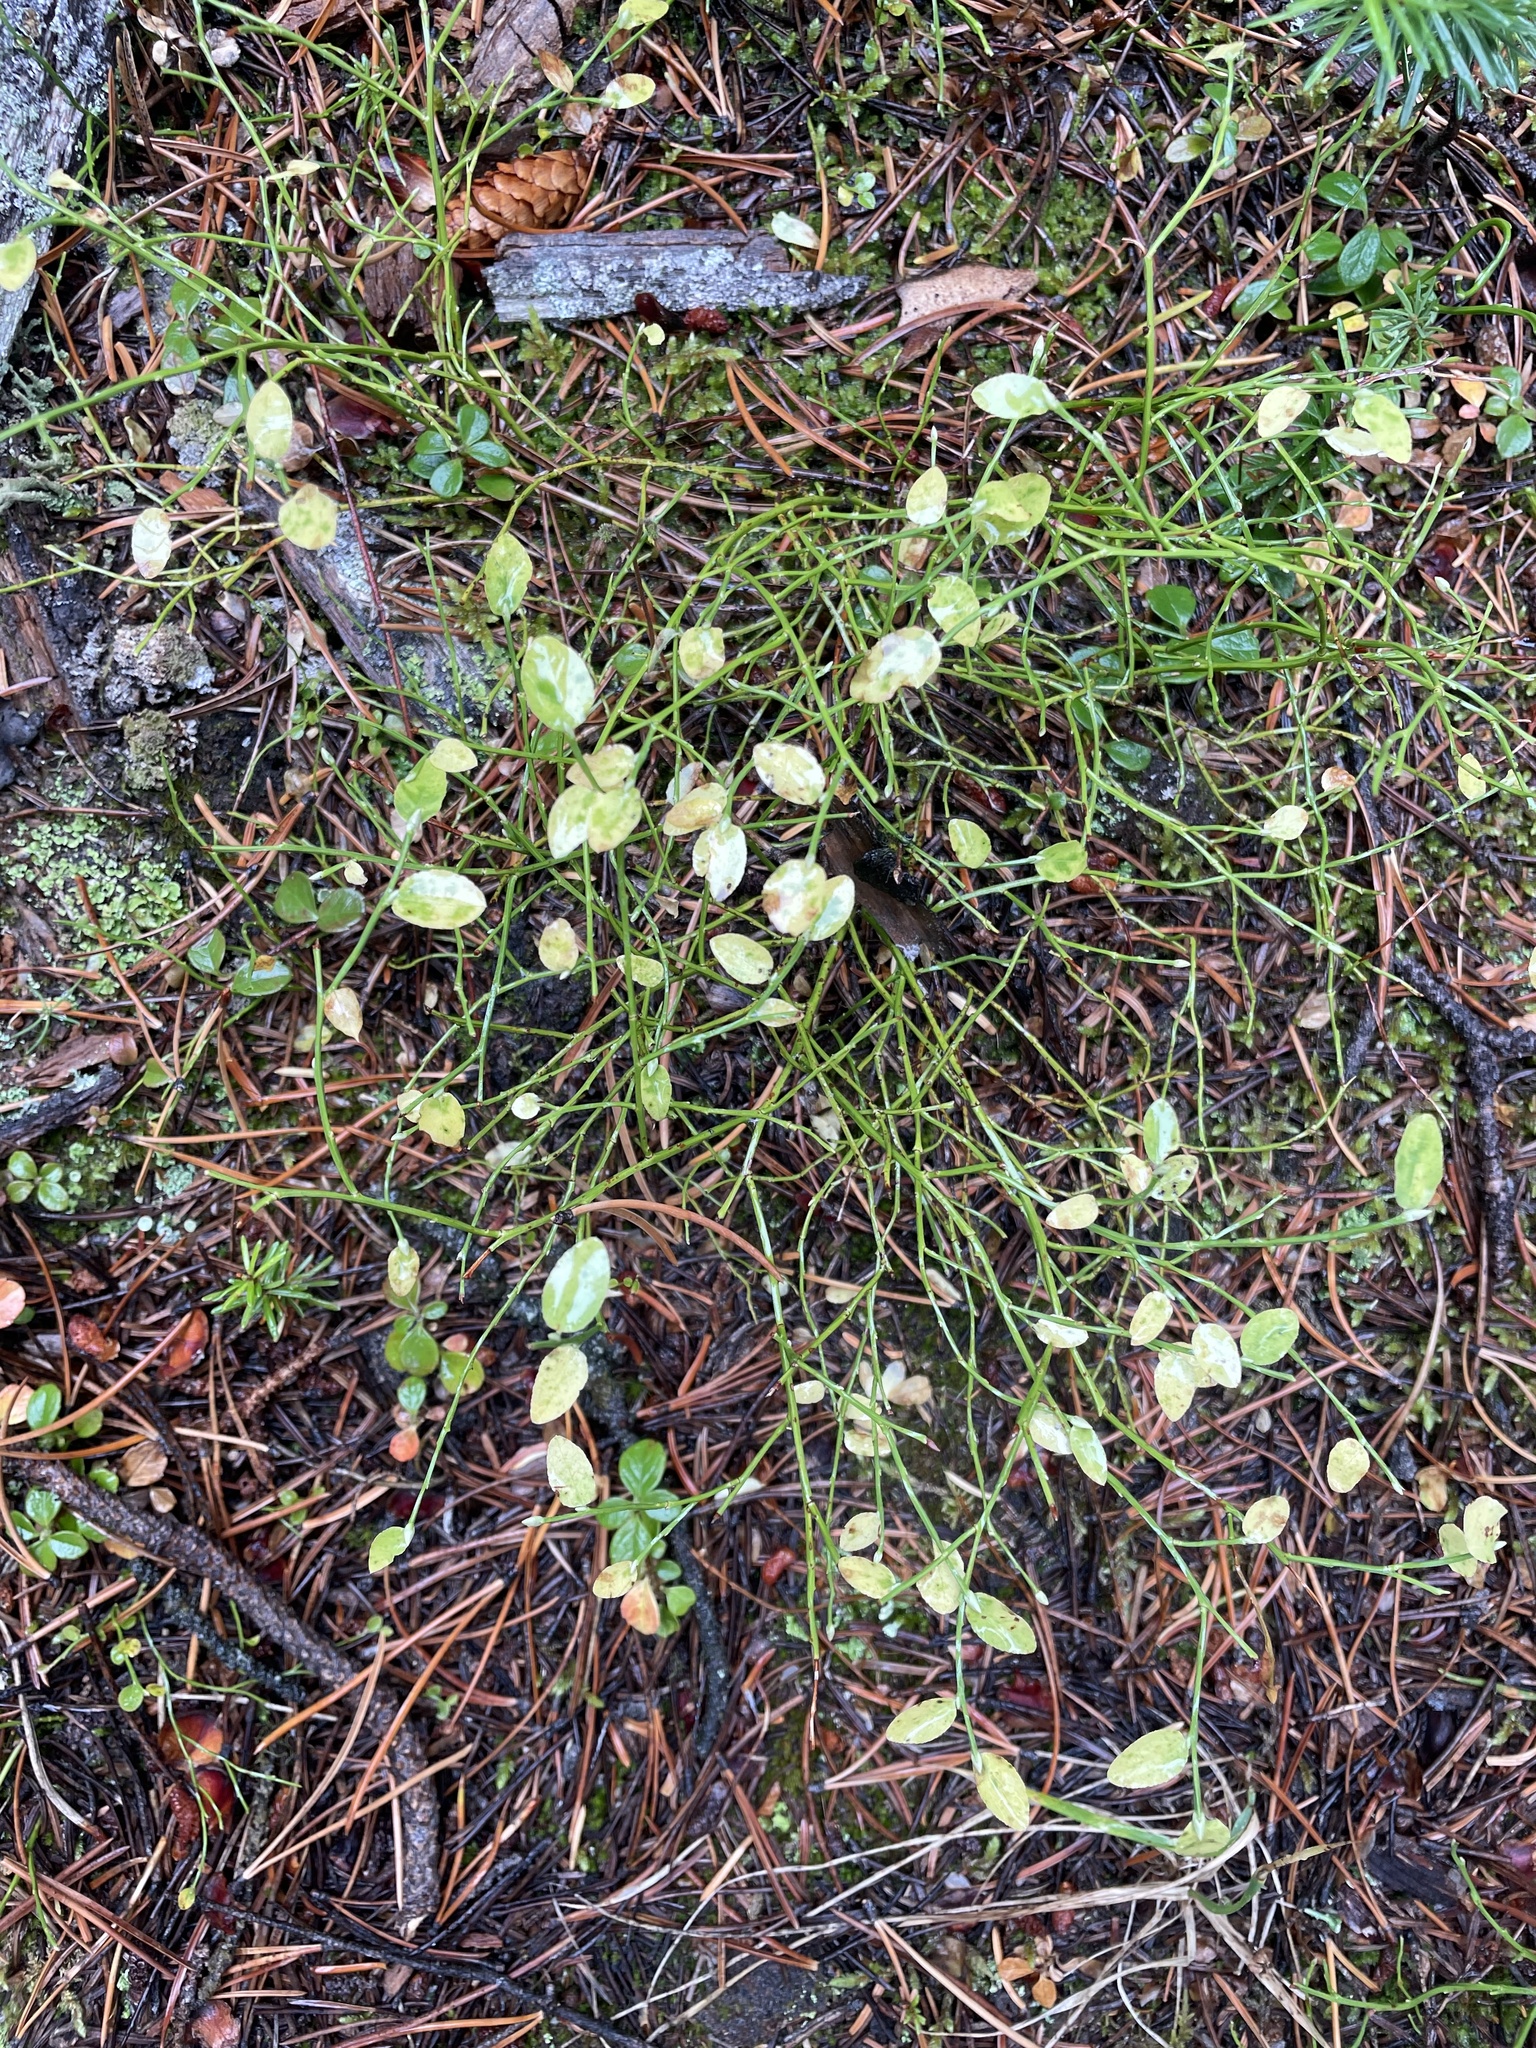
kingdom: Plantae
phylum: Tracheophyta
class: Magnoliopsida
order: Ericales
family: Ericaceae
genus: Vaccinium
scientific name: Vaccinium scoparium
